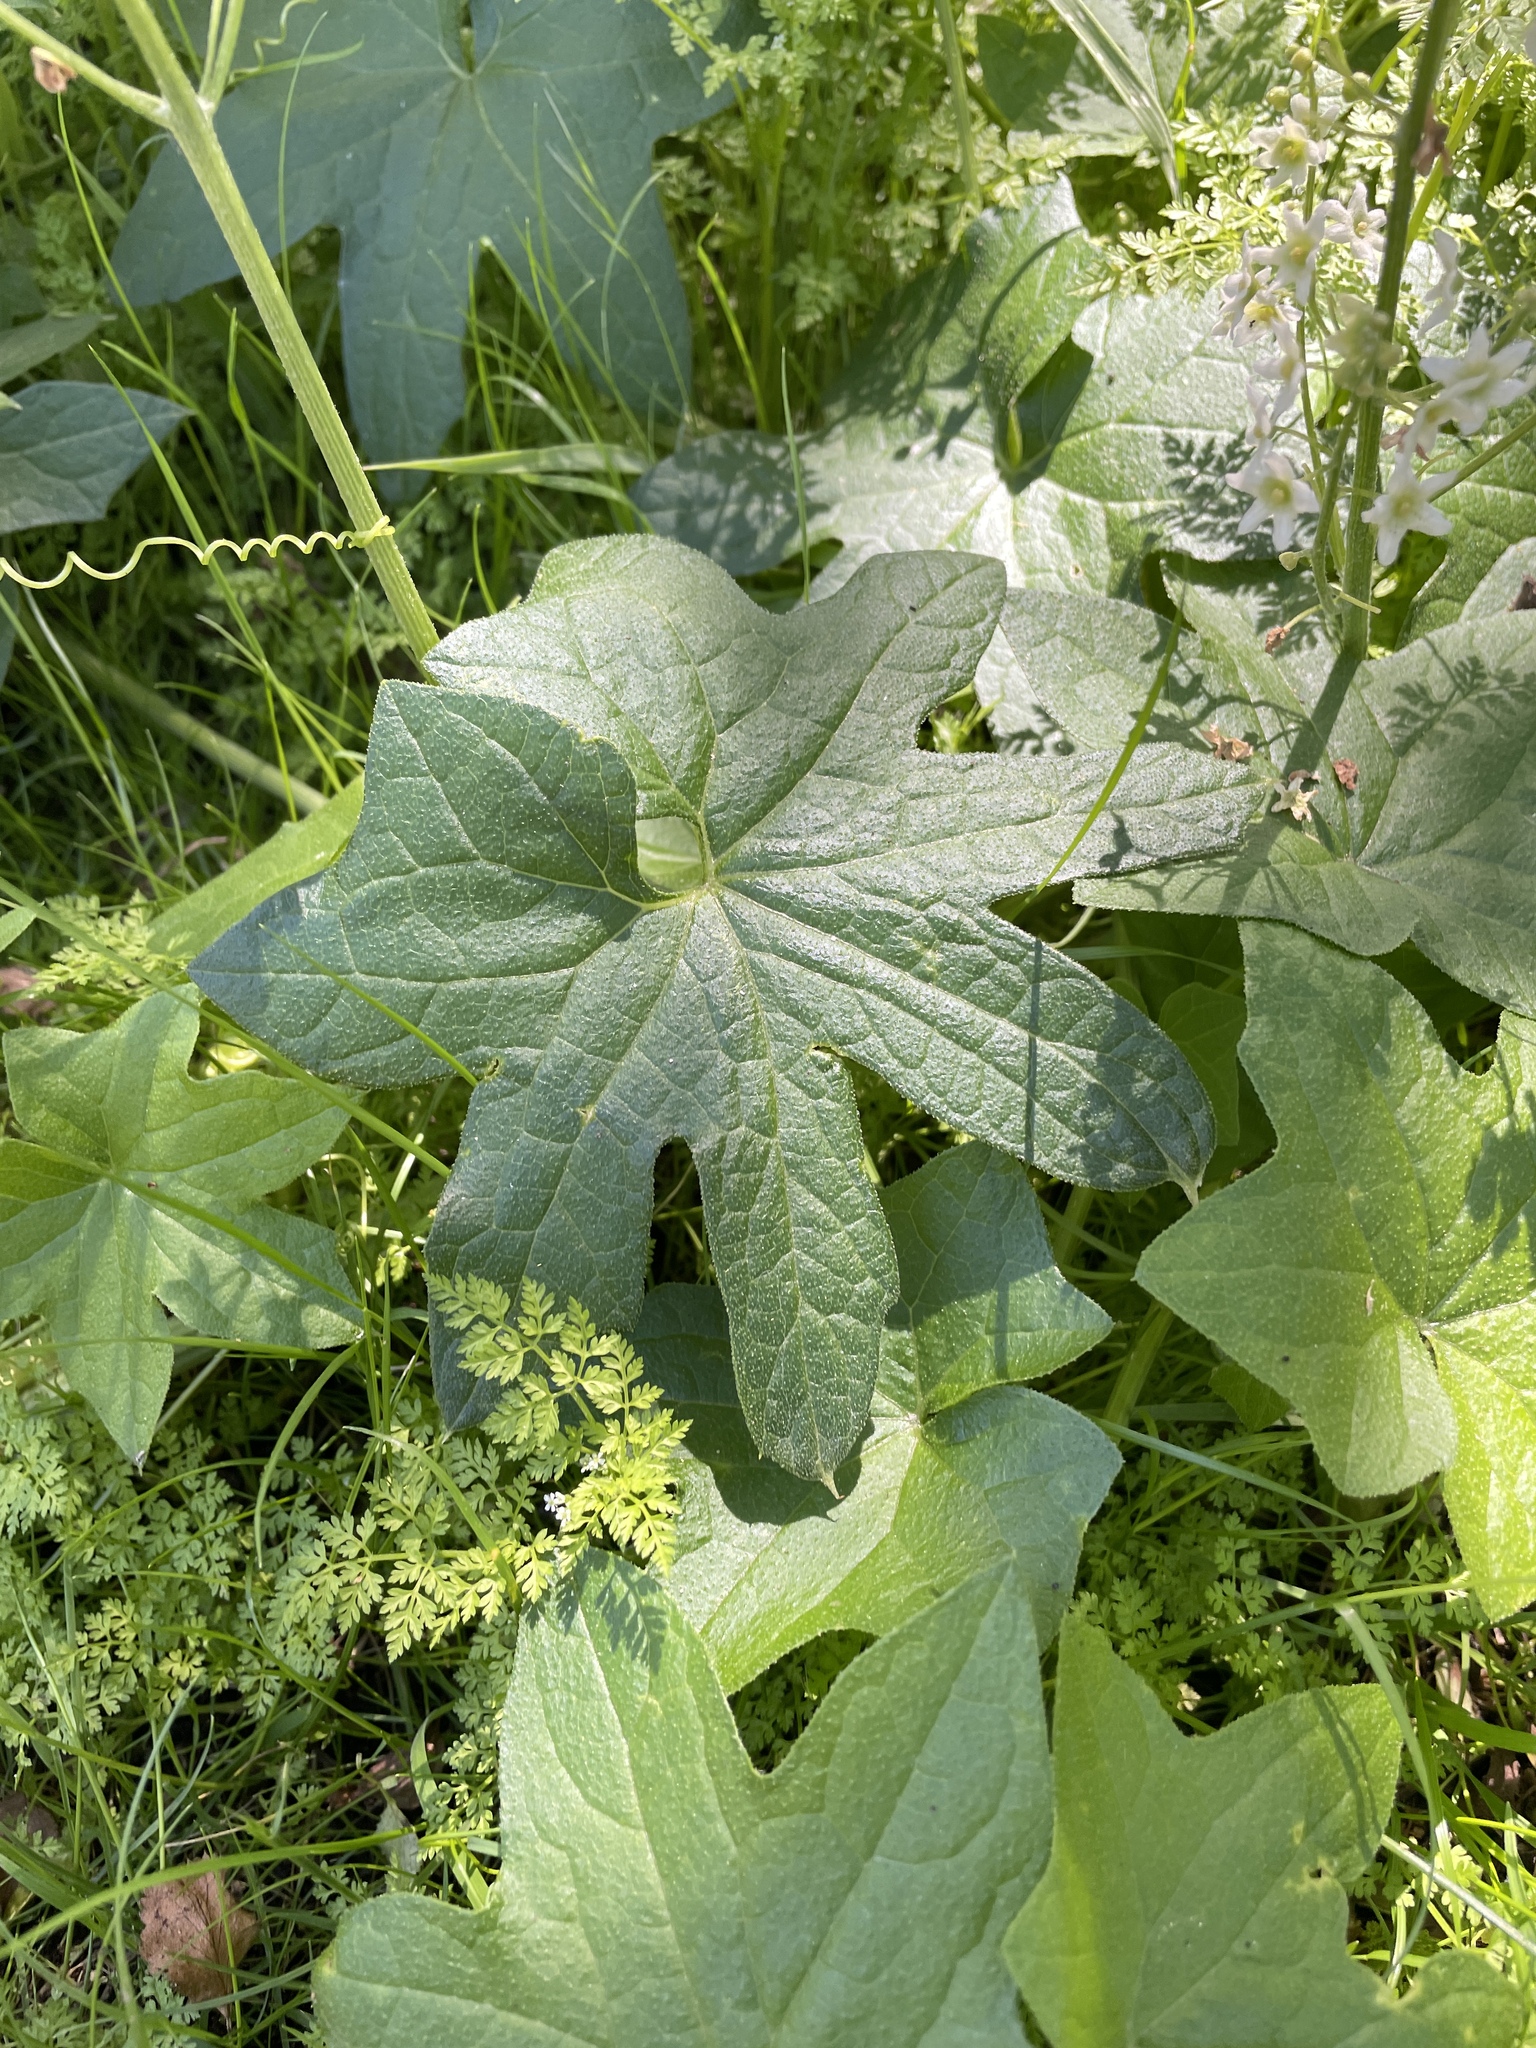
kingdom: Plantae
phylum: Tracheophyta
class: Magnoliopsida
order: Cucurbitales
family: Cucurbitaceae
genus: Marah
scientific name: Marah fabacea
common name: California manroot
